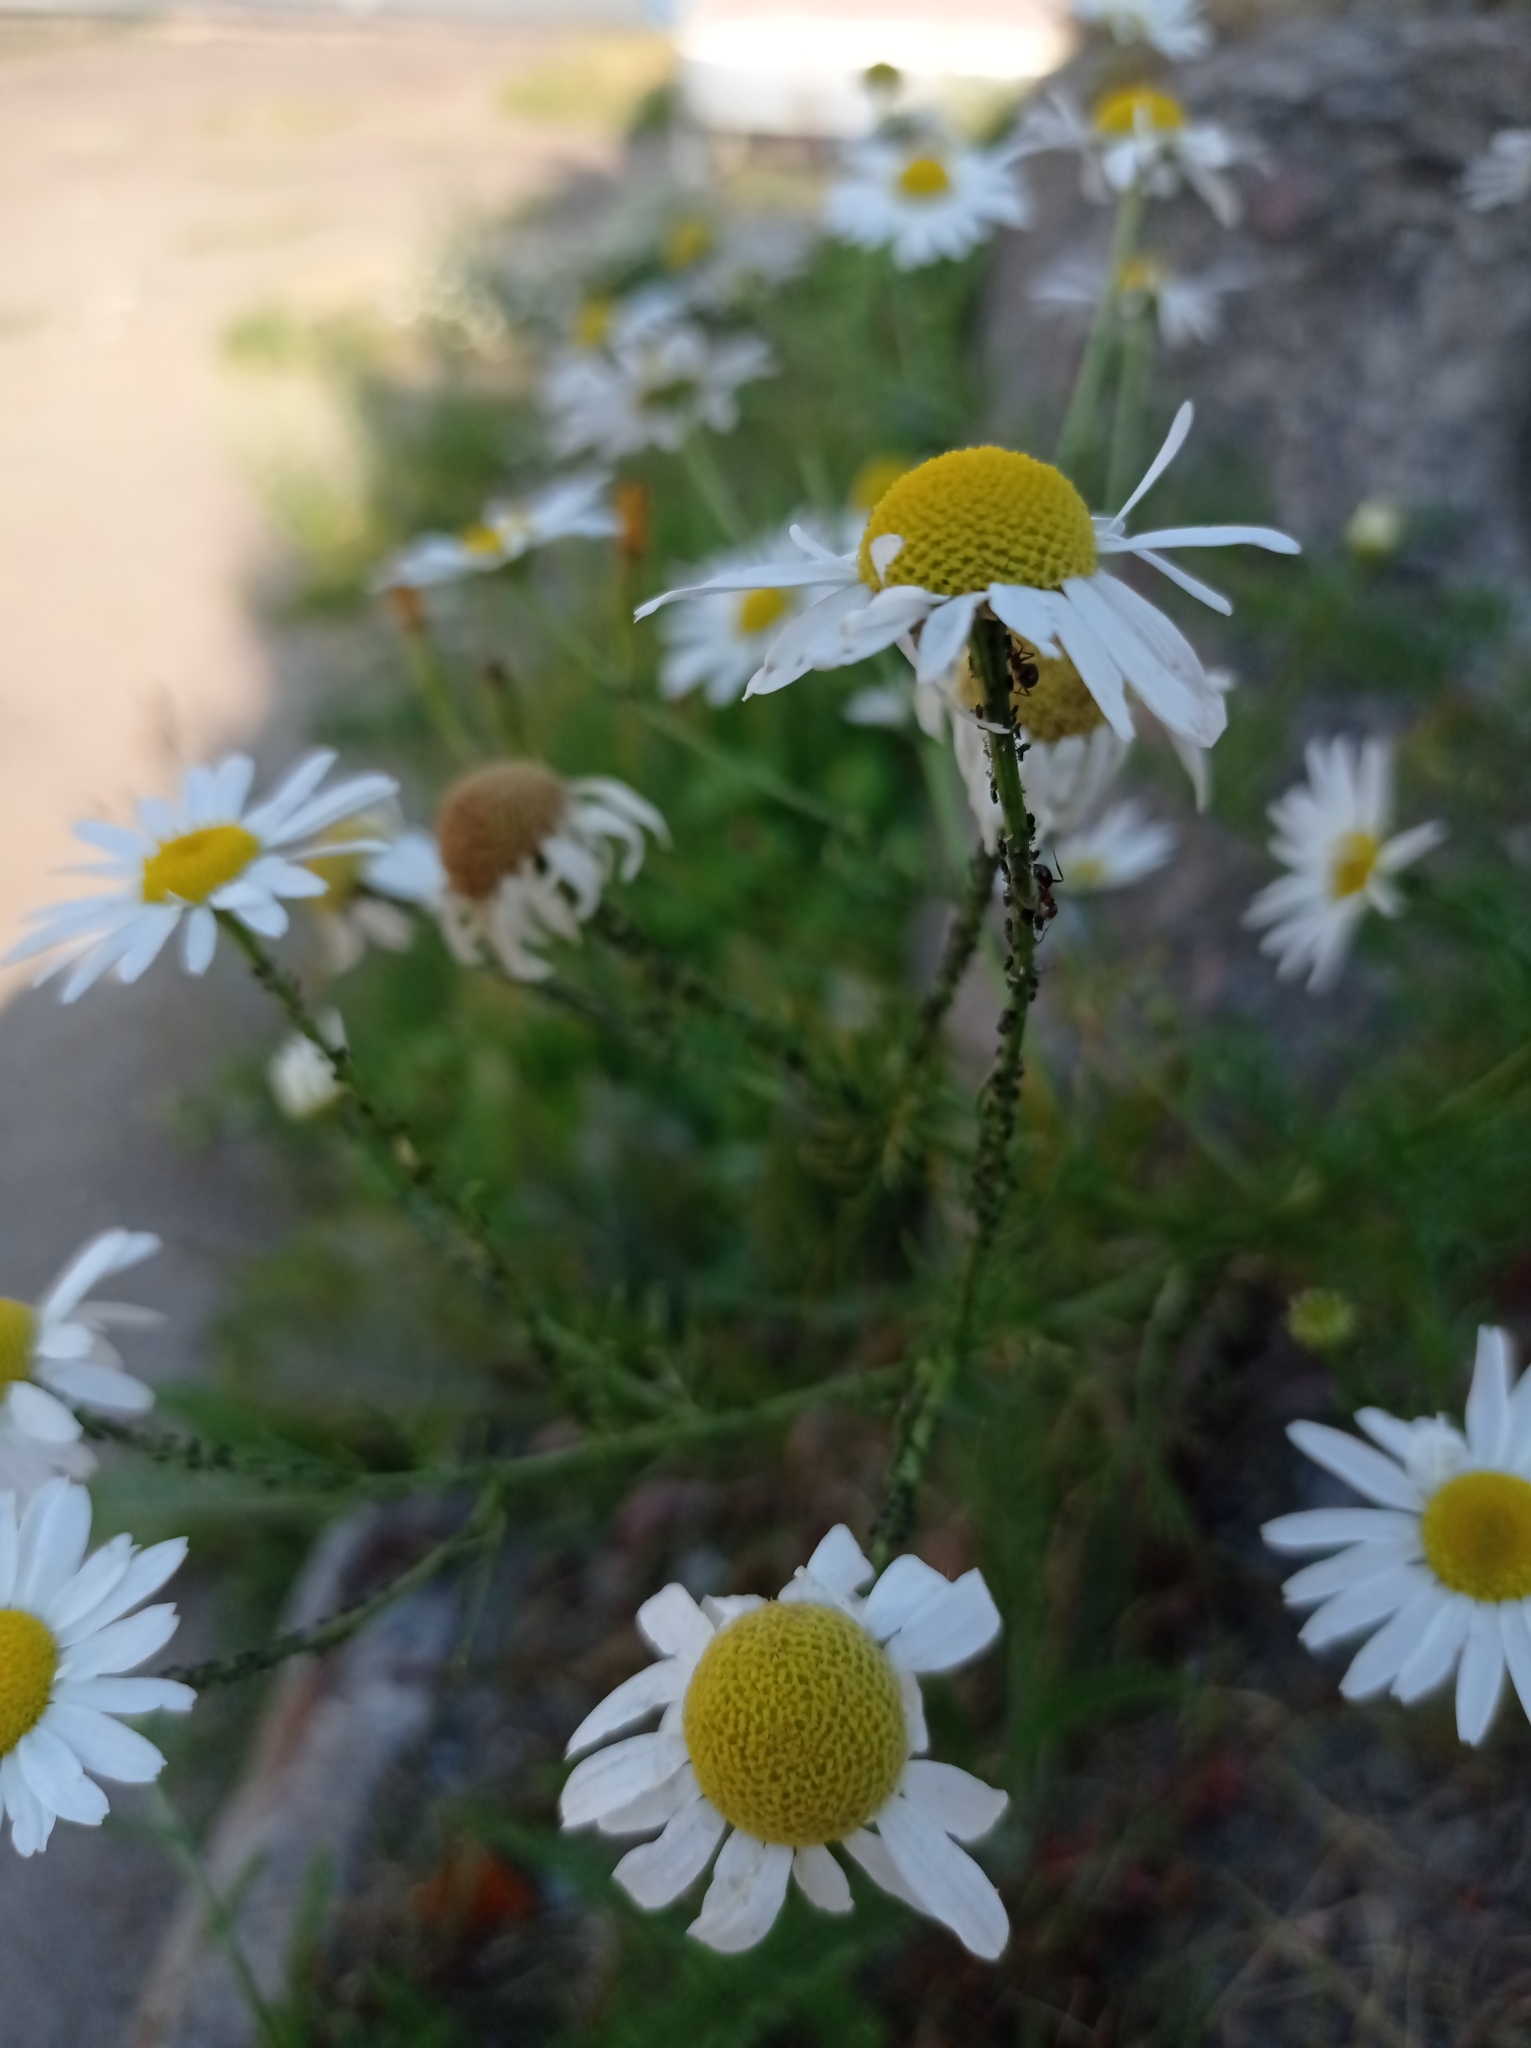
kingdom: Plantae
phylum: Tracheophyta
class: Magnoliopsida
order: Asterales
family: Asteraceae
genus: Tripleurospermum
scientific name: Tripleurospermum inodorum
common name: Scentless mayweed
